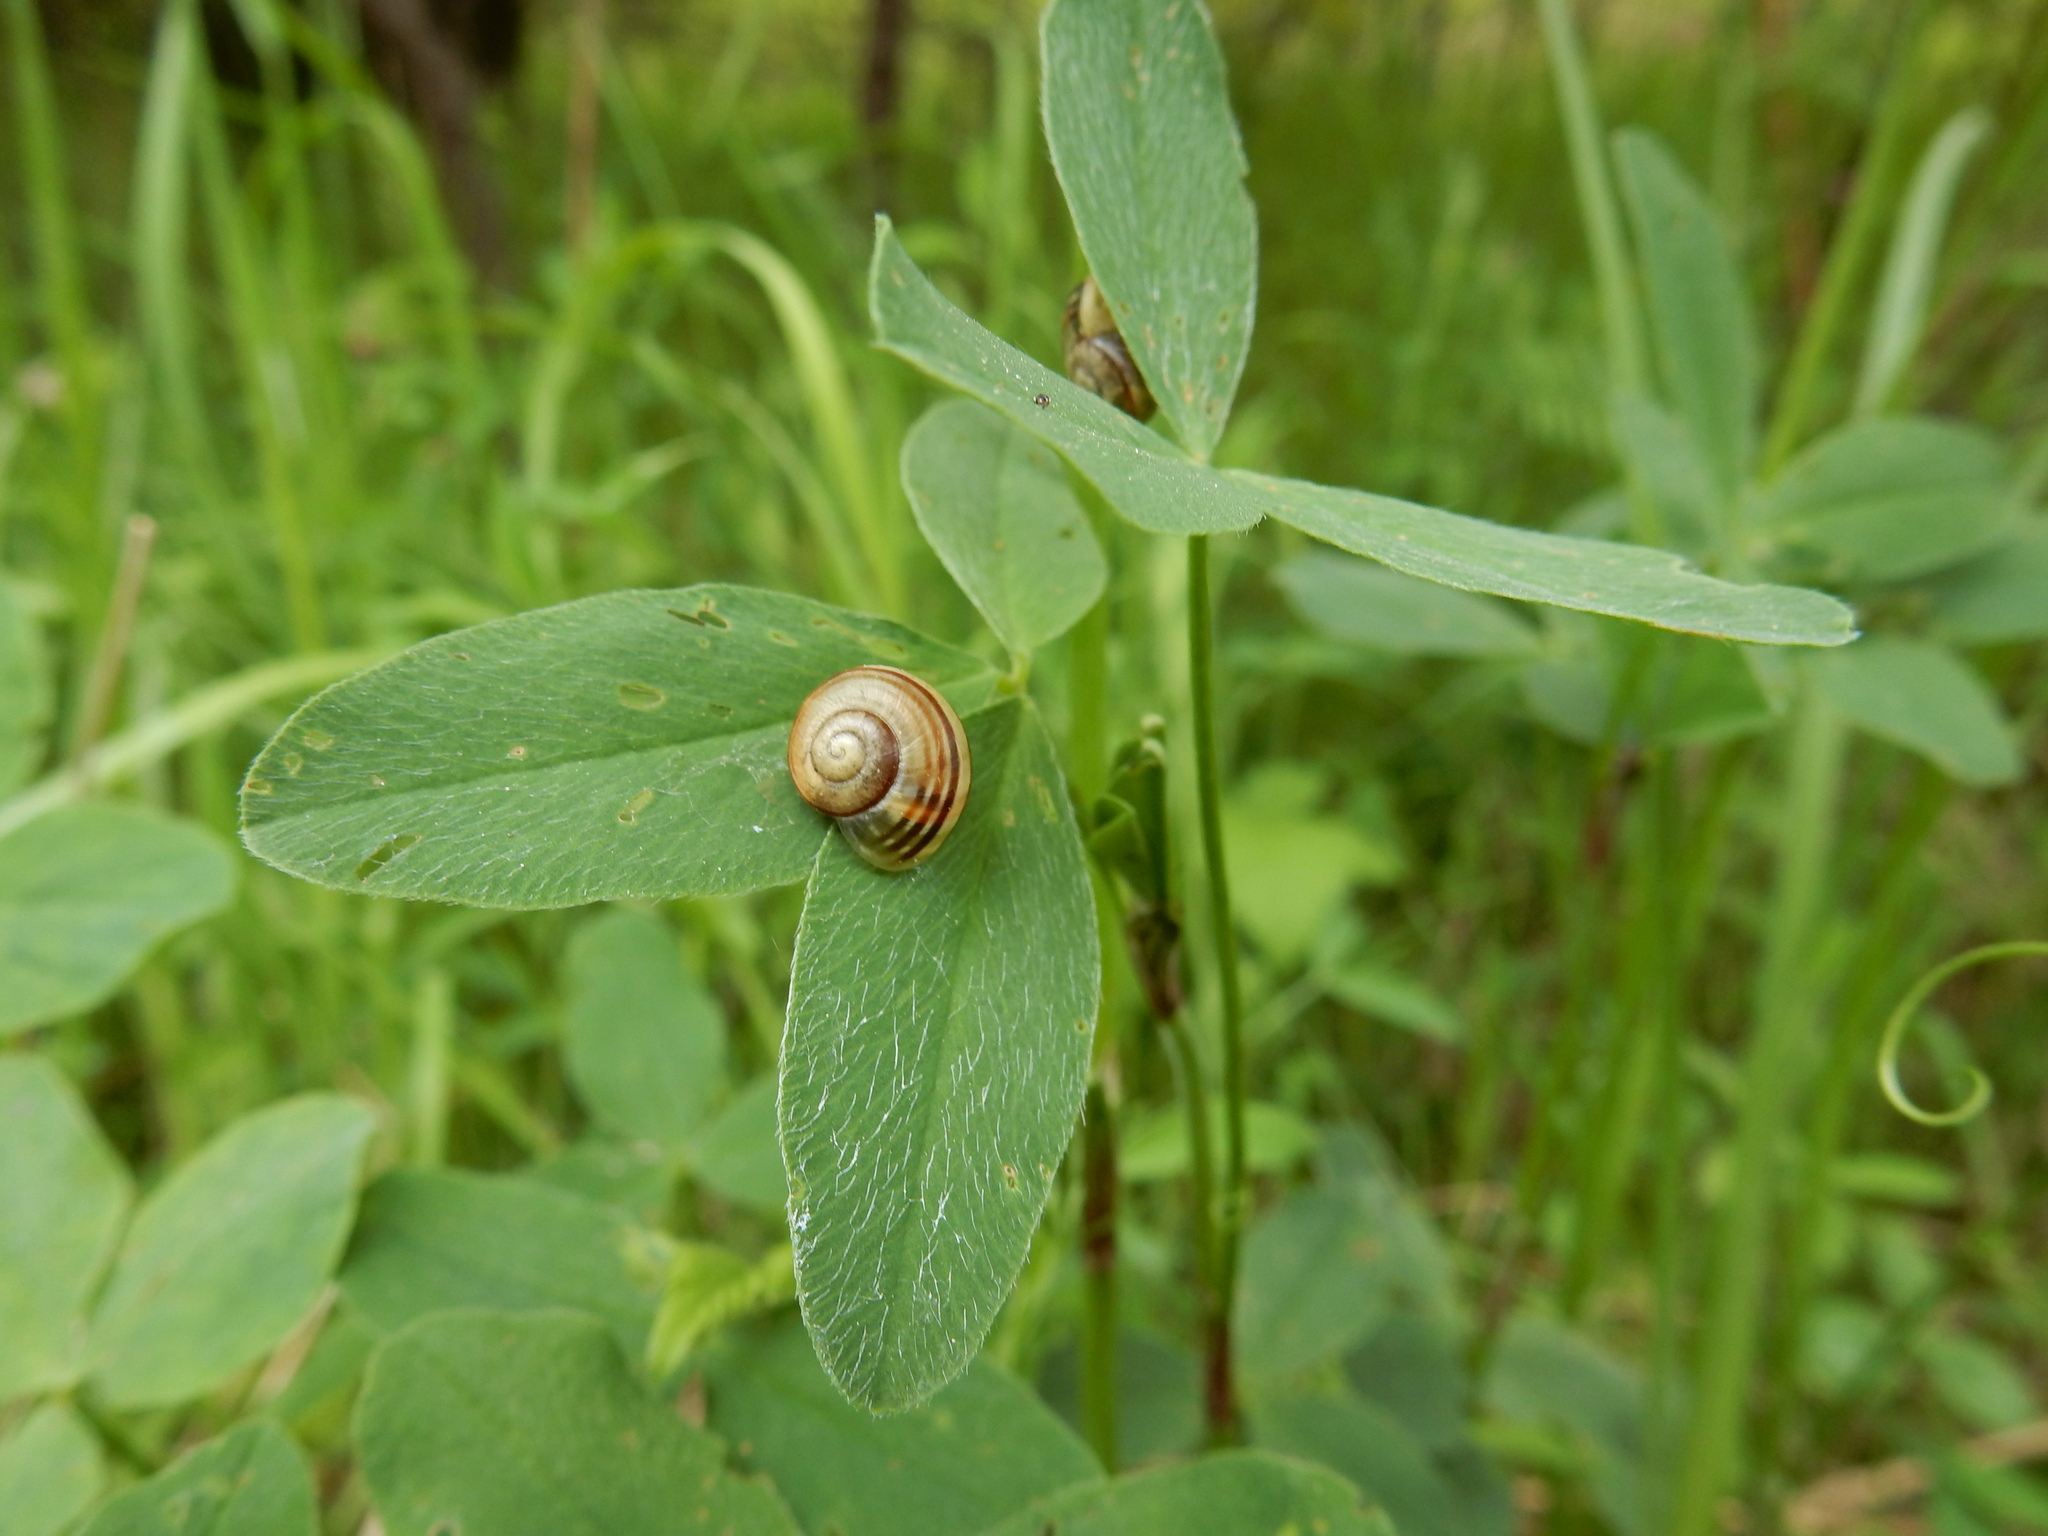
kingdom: Animalia
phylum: Mollusca
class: Gastropoda
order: Stylommatophora
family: Helicidae
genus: Cepaea
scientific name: Cepaea
